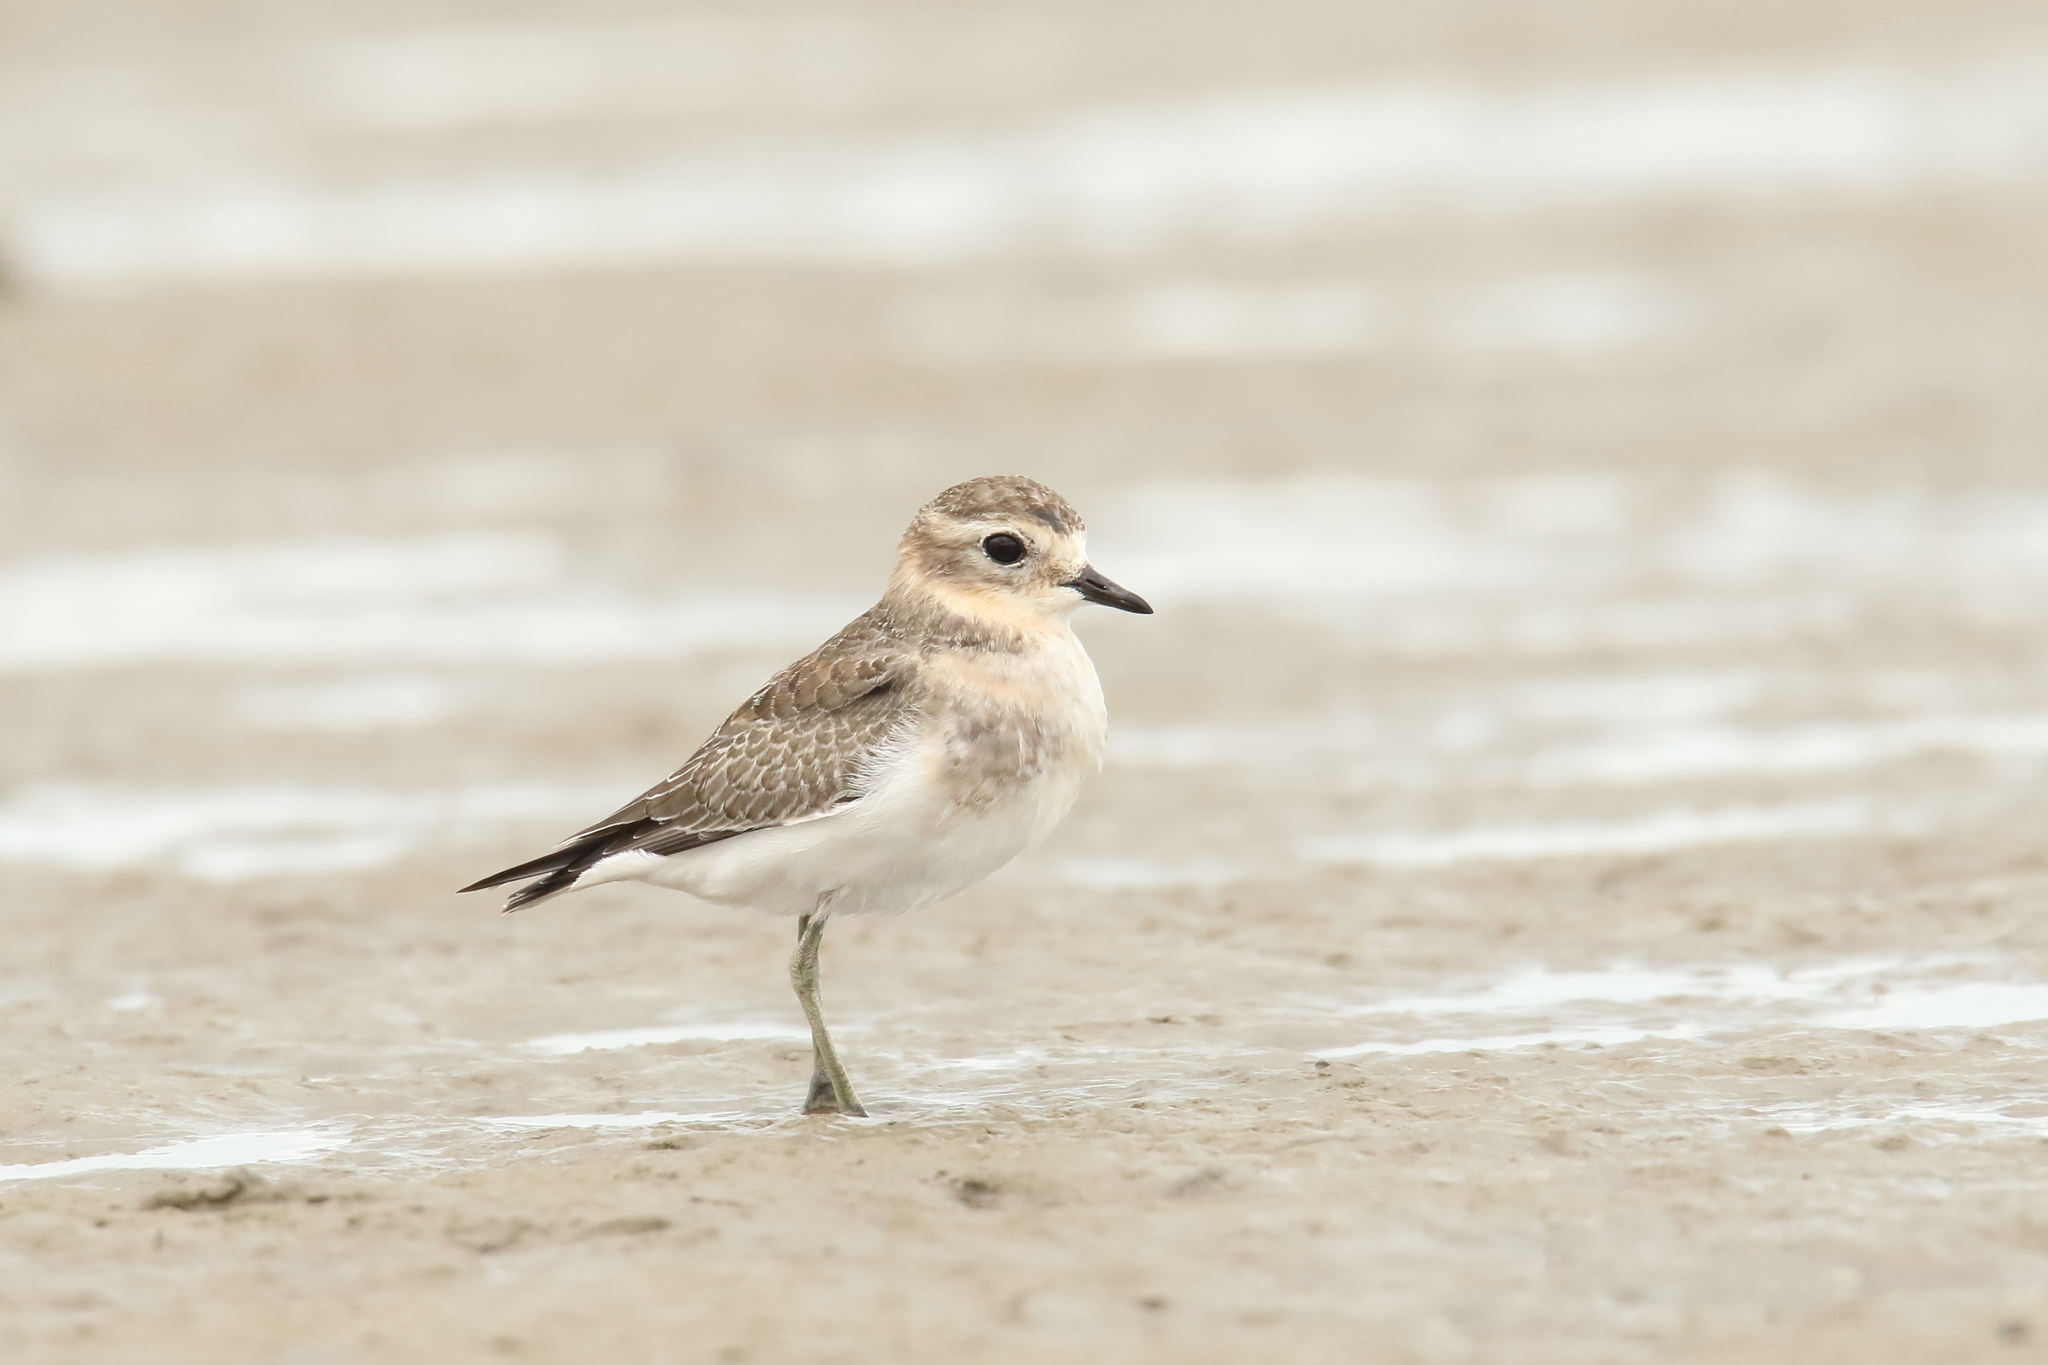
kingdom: Animalia
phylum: Chordata
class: Aves
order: Charadriiformes
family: Charadriidae
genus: Anarhynchus
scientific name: Anarhynchus
